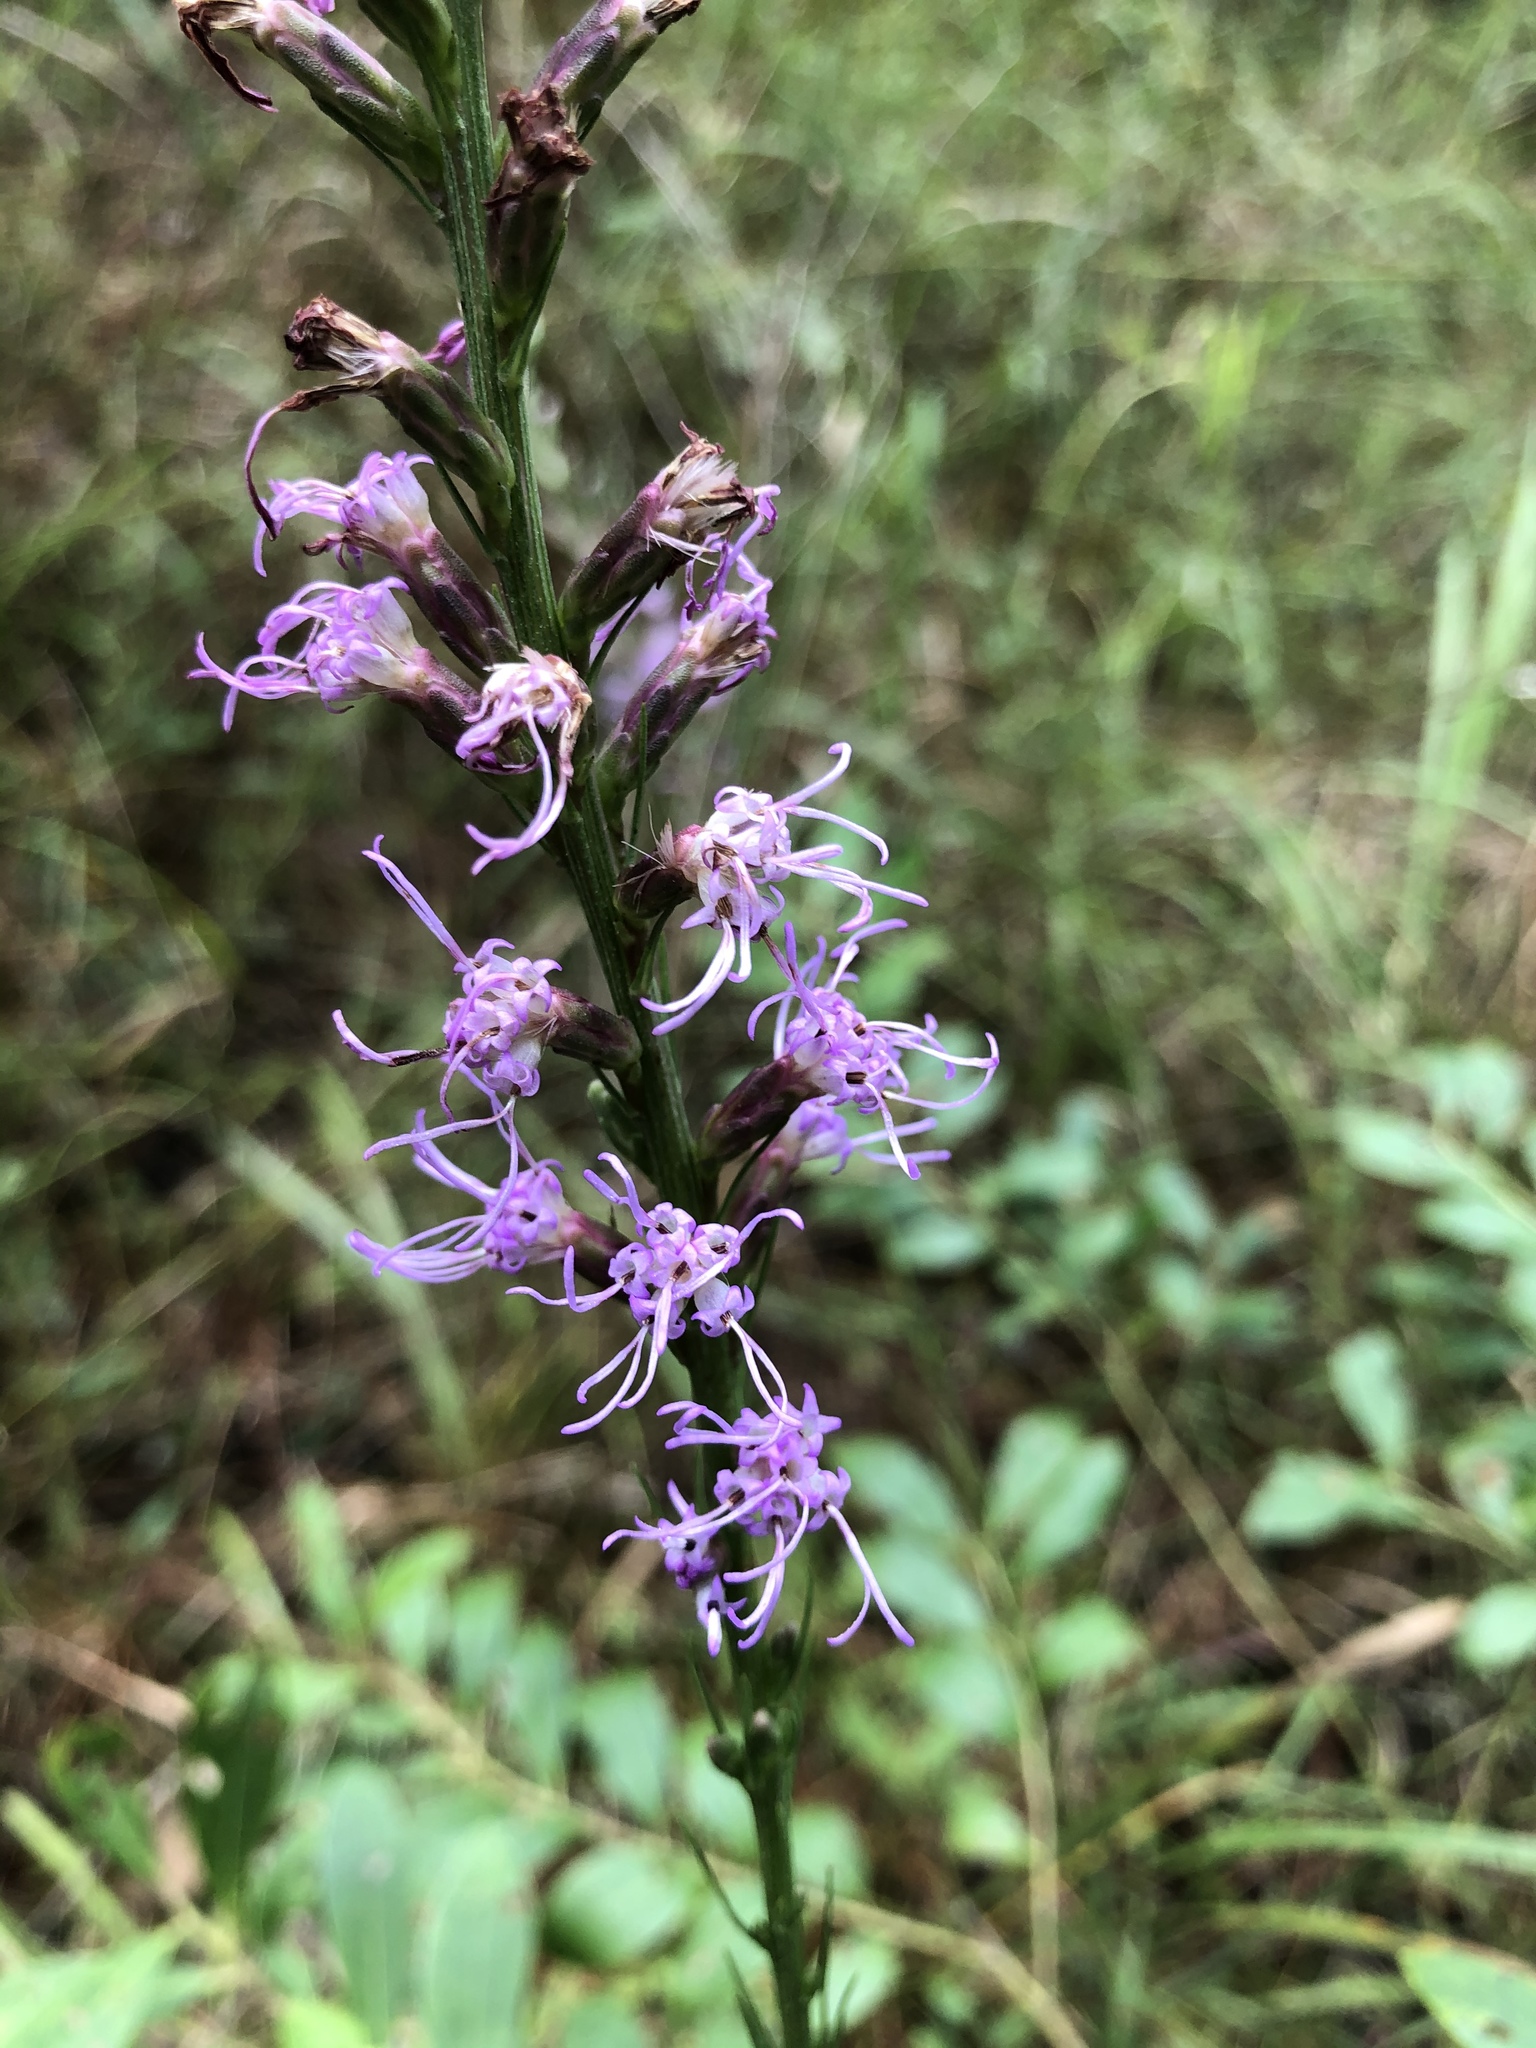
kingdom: Plantae
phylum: Tracheophyta
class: Magnoliopsida
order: Asterales
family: Asteraceae
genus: Liatris
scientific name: Liatris spicata
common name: Florist gayfeather
